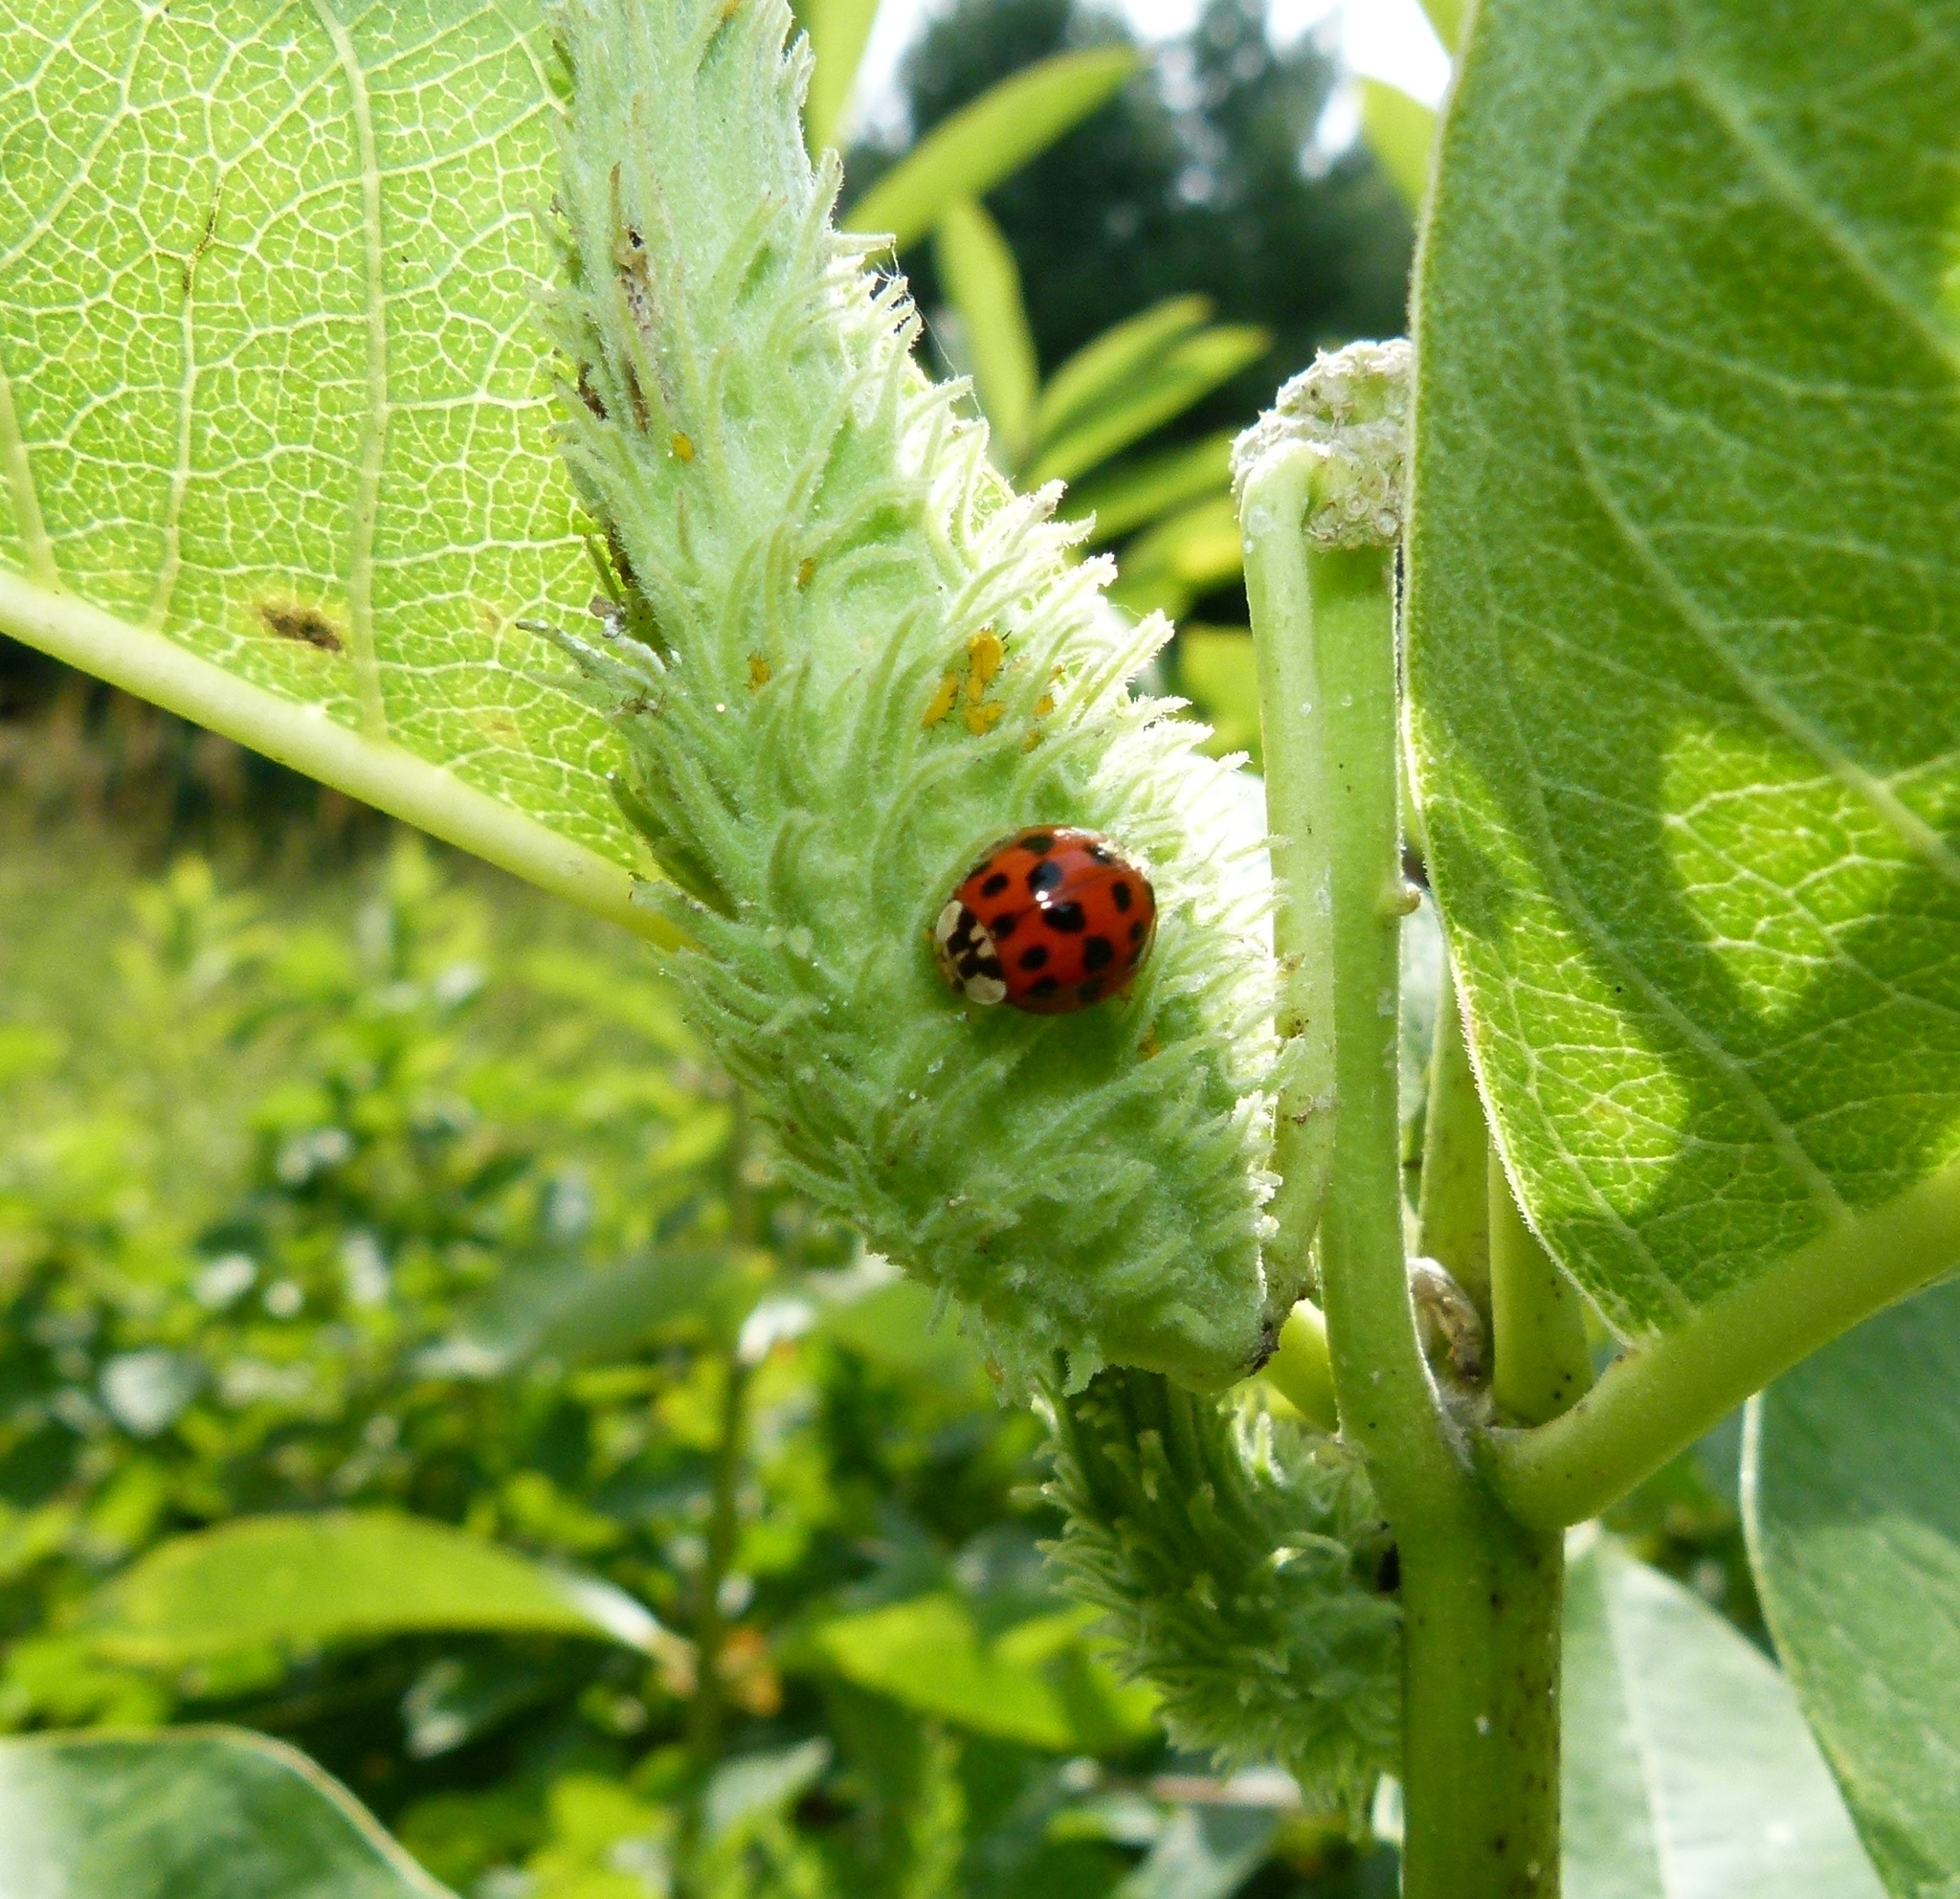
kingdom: Animalia
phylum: Arthropoda
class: Insecta
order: Coleoptera
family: Coccinellidae
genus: Harmonia
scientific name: Harmonia axyridis
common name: Harlequin ladybird
